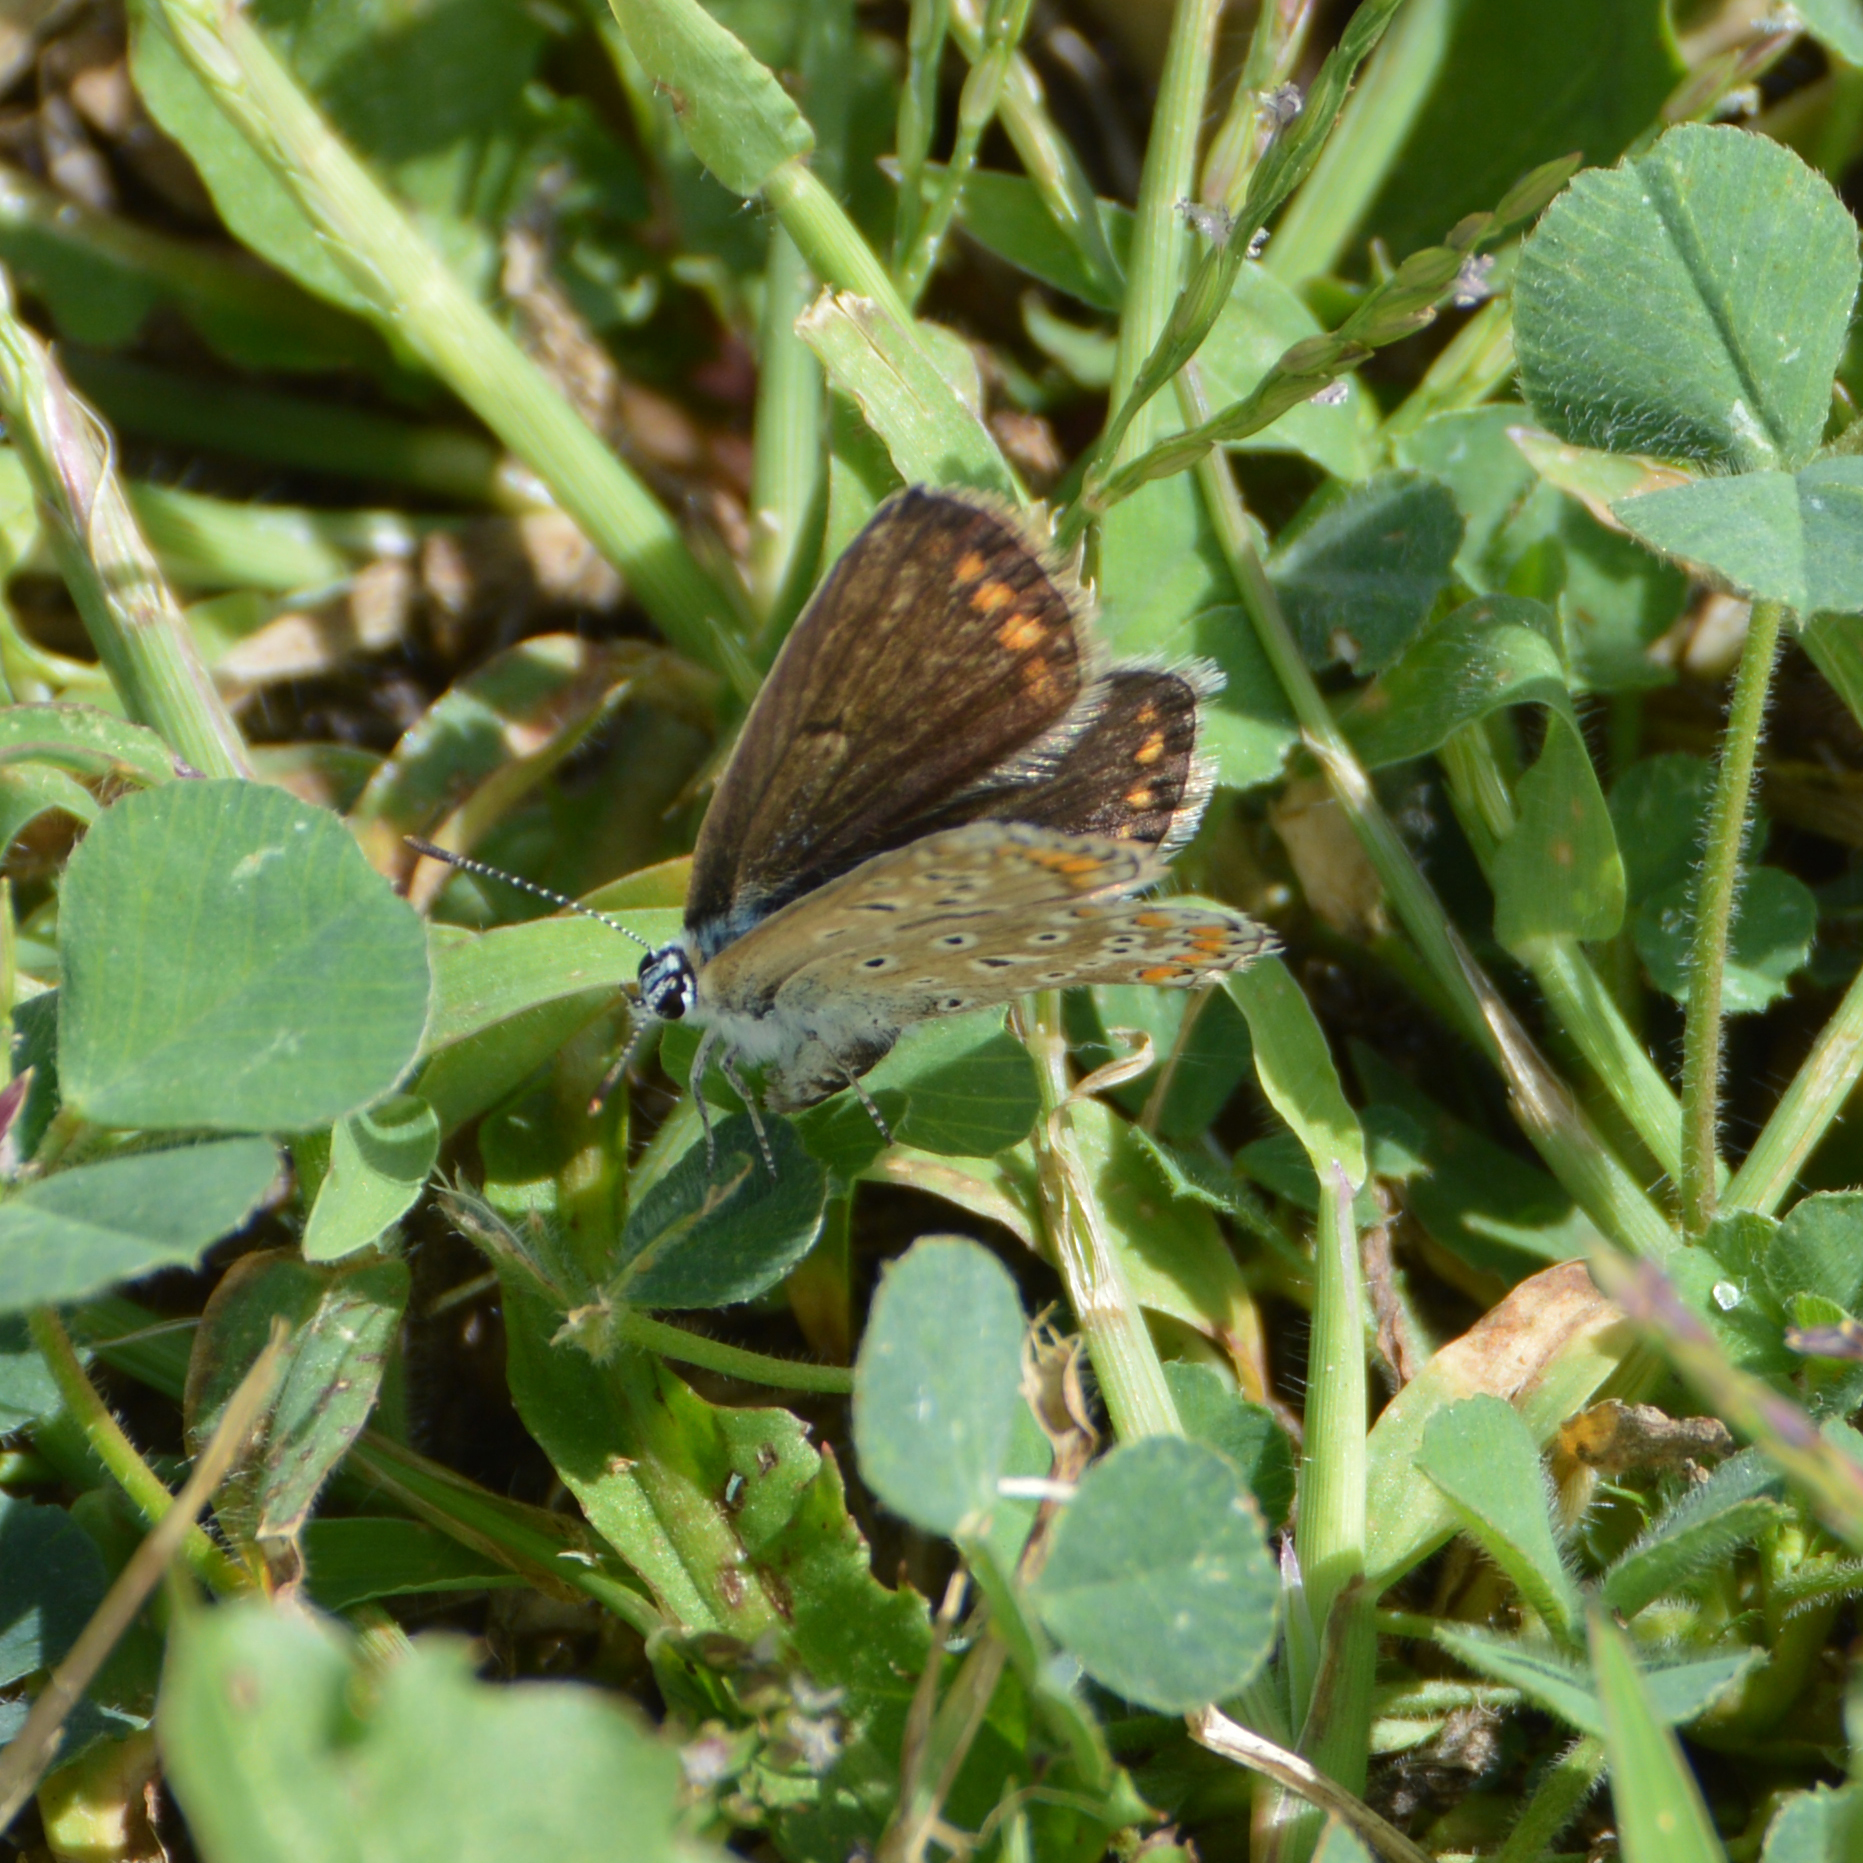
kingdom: Animalia
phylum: Arthropoda
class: Insecta
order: Lepidoptera
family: Lycaenidae
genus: Polyommatus
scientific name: Polyommatus icarus
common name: Common blue
